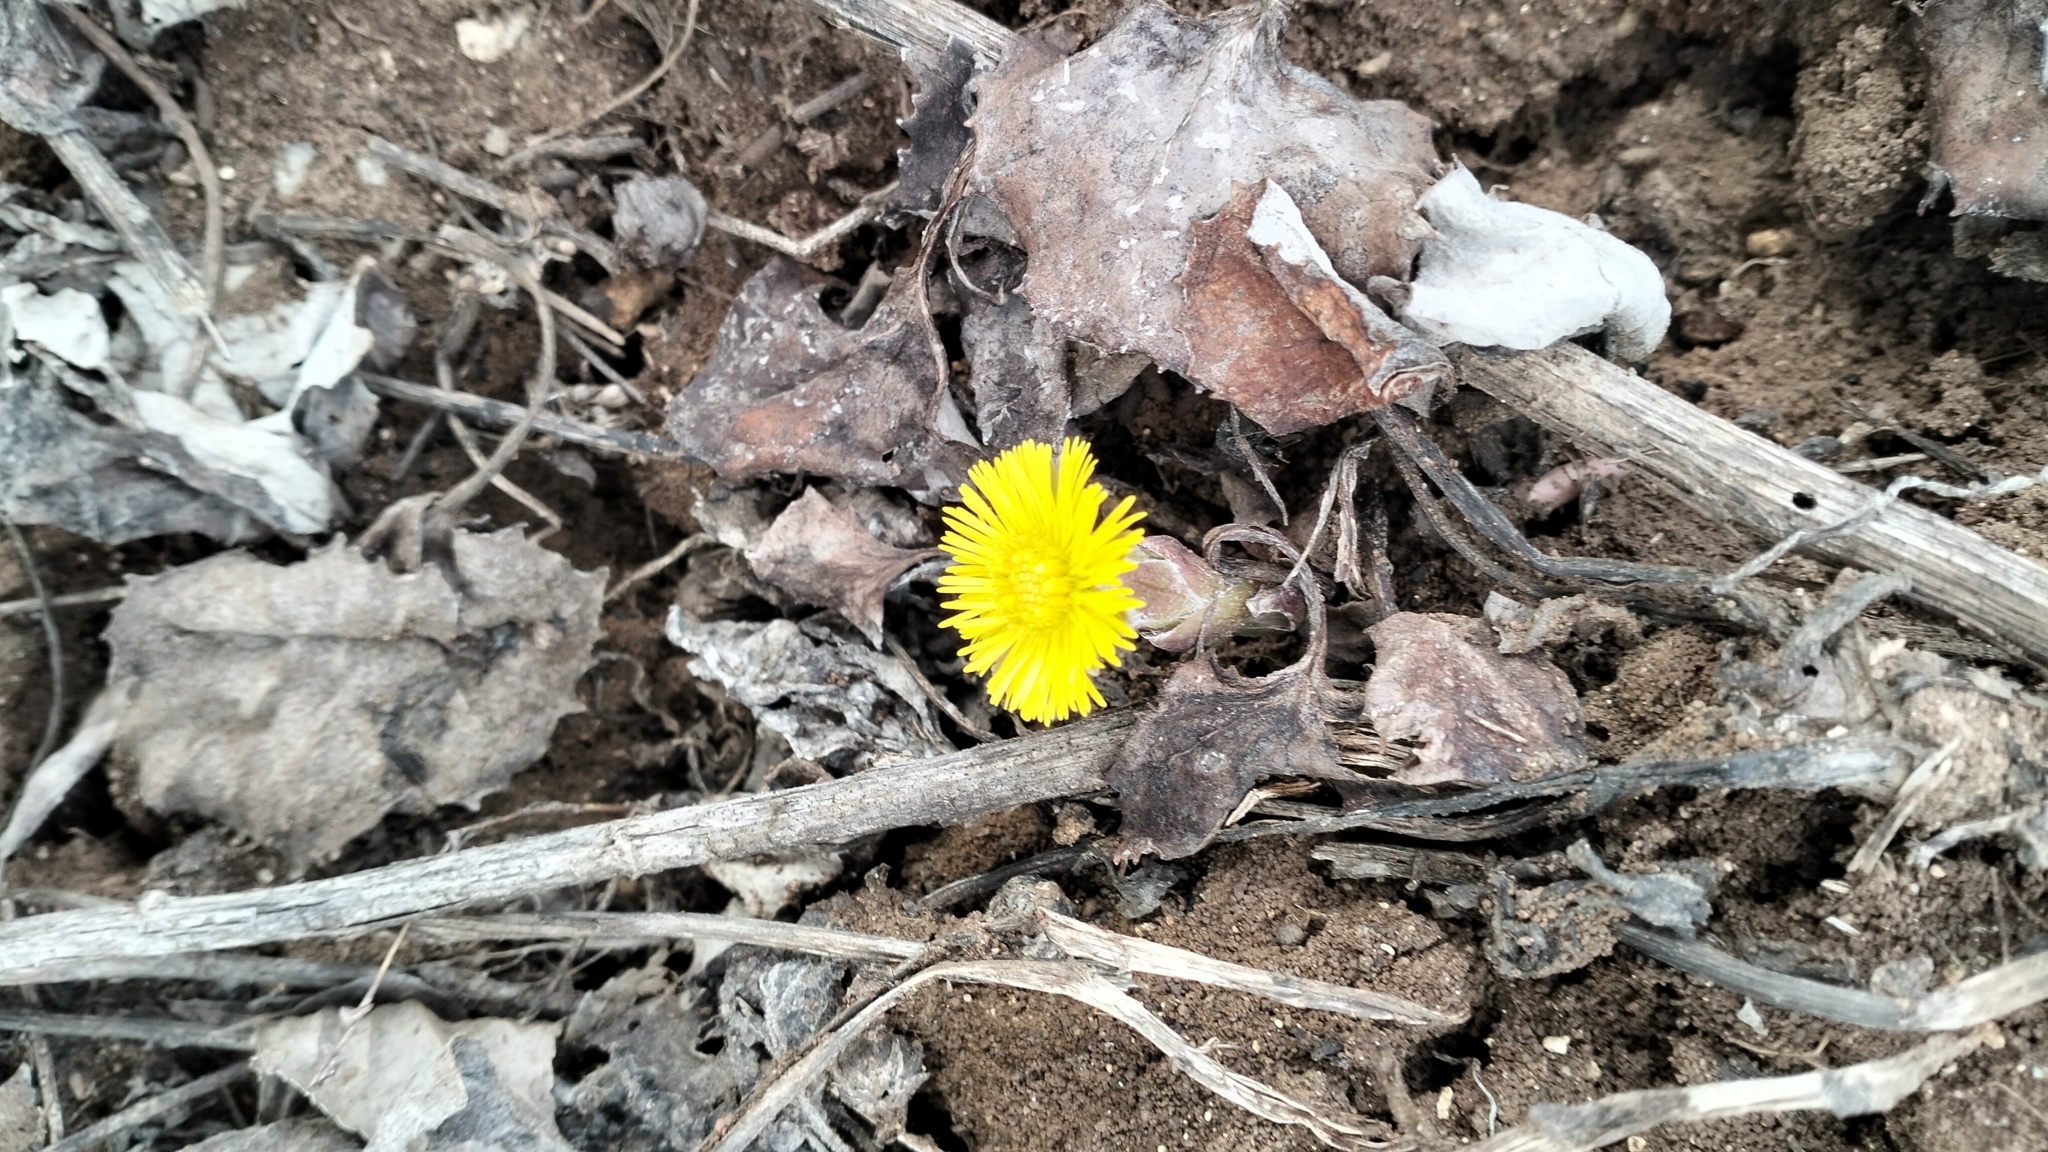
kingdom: Plantae
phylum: Tracheophyta
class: Magnoliopsida
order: Asterales
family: Asteraceae
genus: Tussilago
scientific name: Tussilago farfara
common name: Coltsfoot
